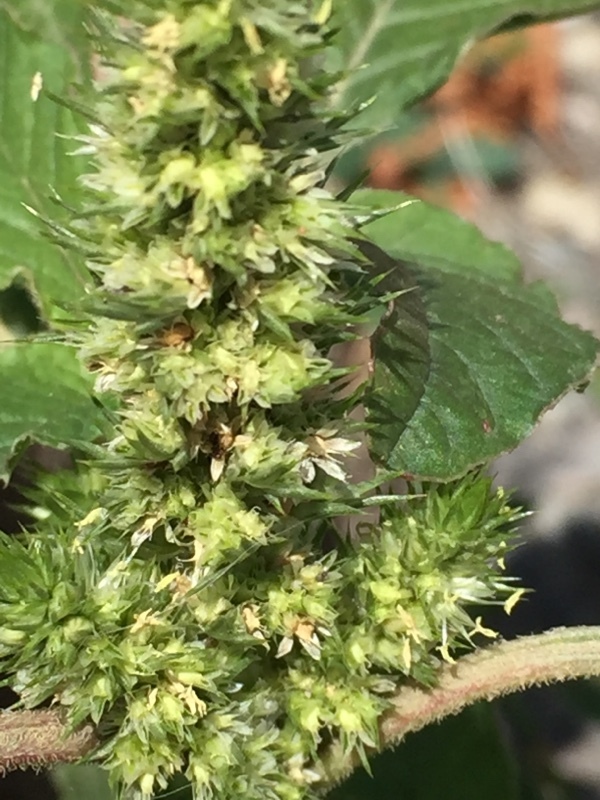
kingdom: Plantae
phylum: Tracheophyta
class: Magnoliopsida
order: Caryophyllales
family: Amaranthaceae
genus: Amaranthus
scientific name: Amaranthus retroflexus
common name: Redroot amaranth
